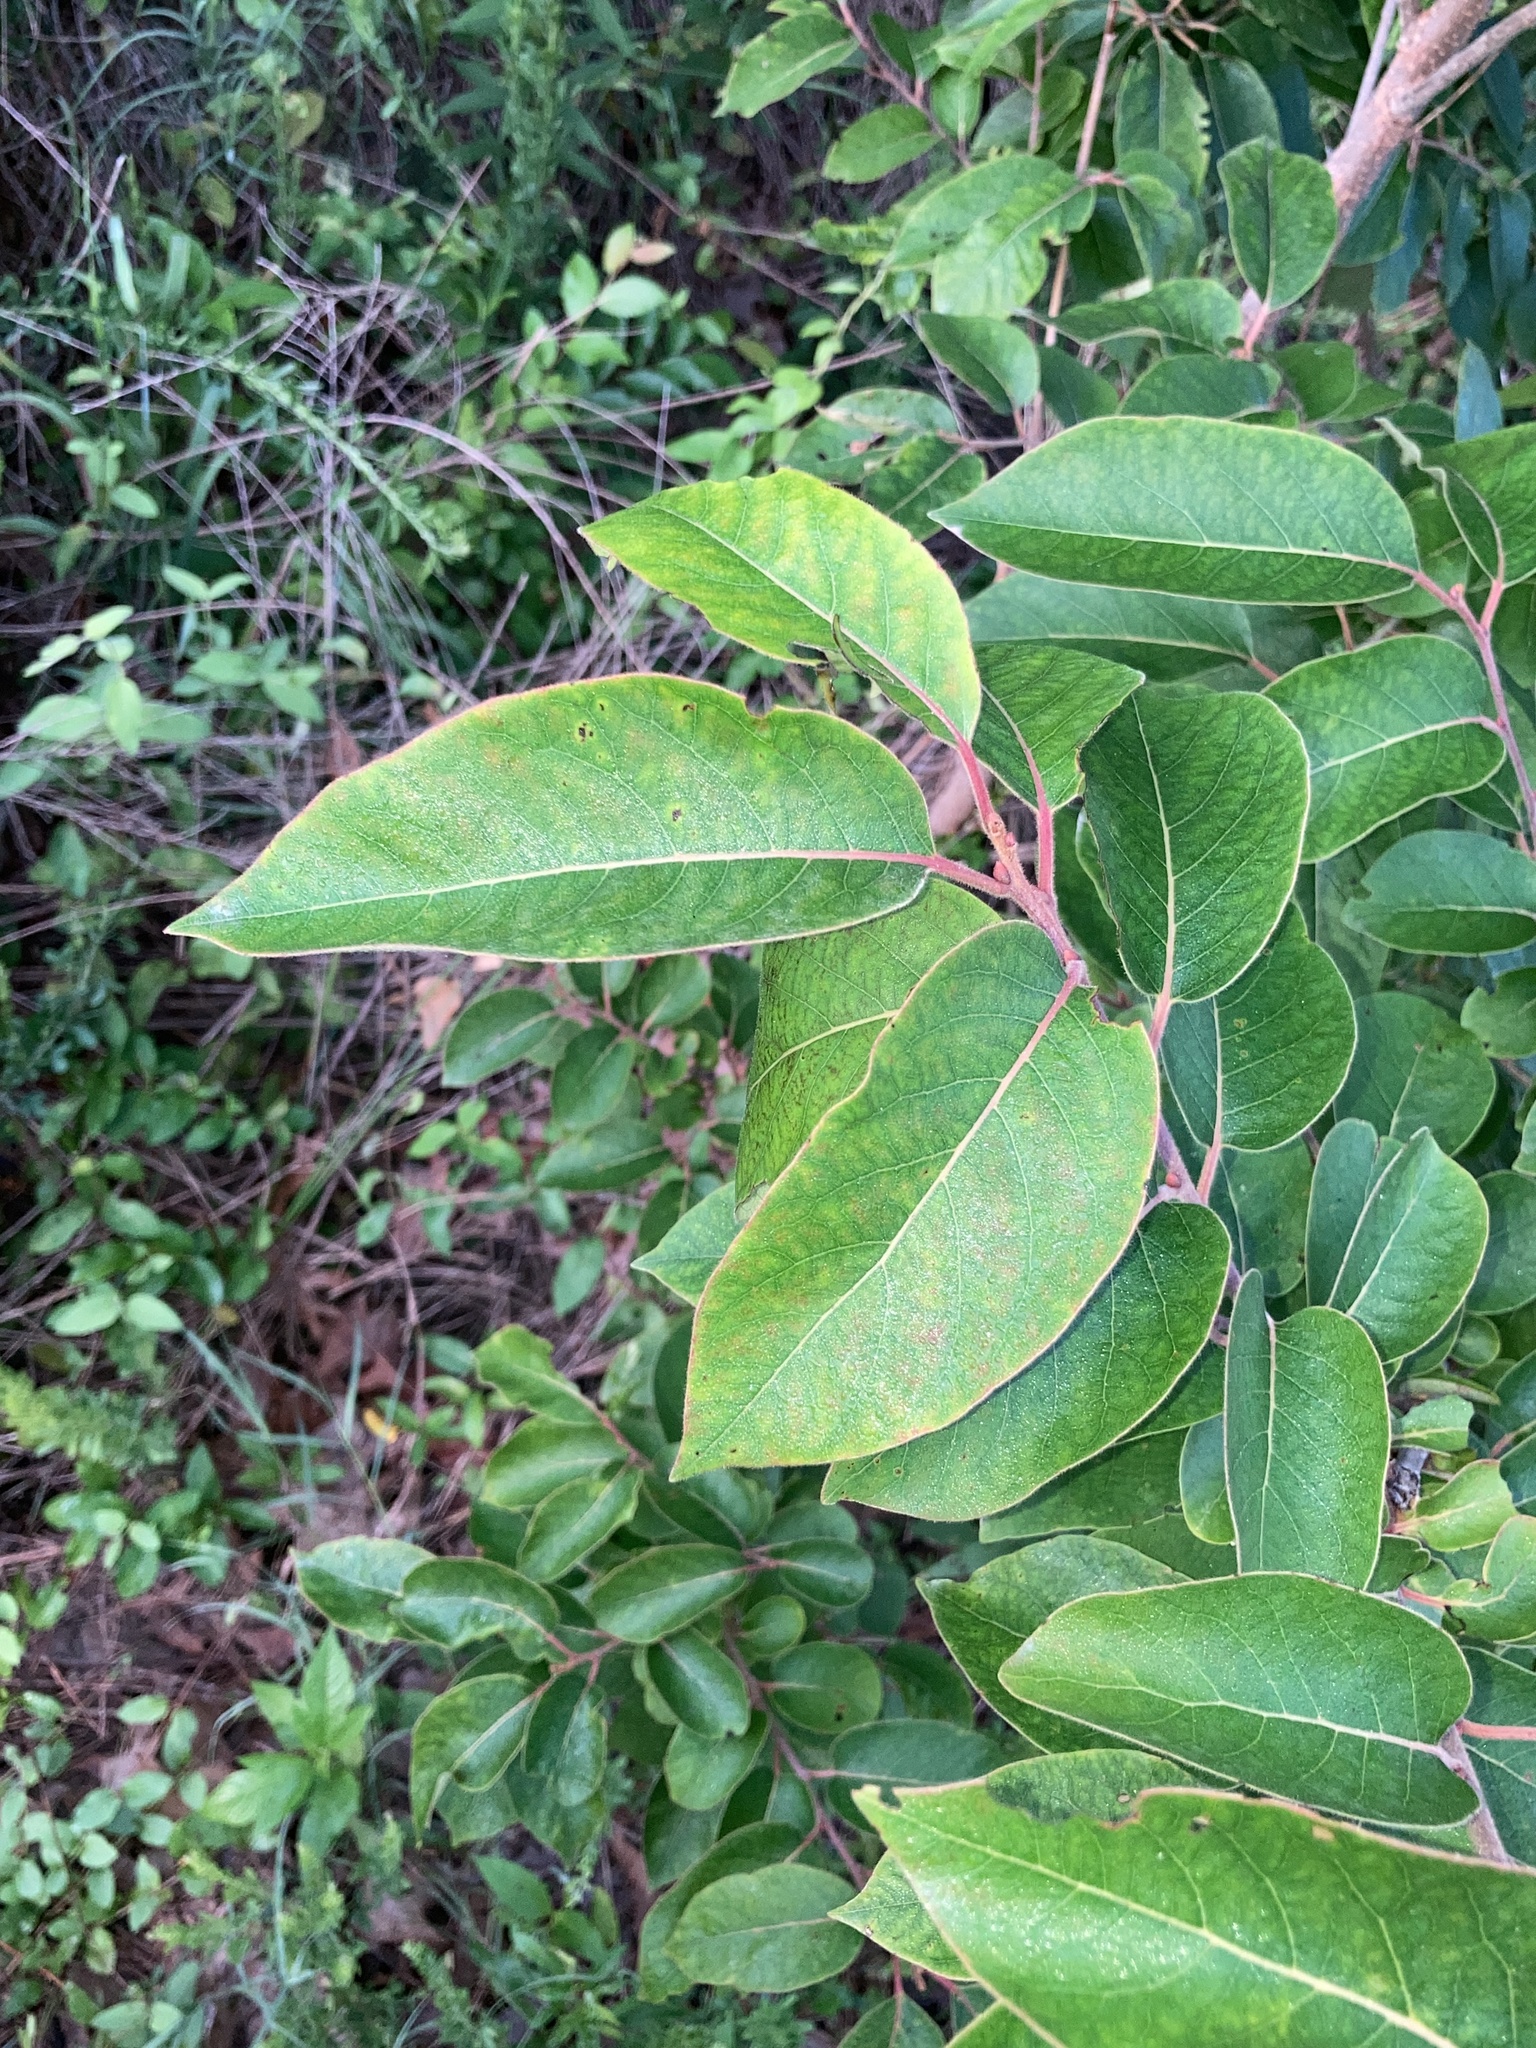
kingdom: Plantae
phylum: Tracheophyta
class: Magnoliopsida
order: Ericales
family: Ebenaceae
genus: Diospyros
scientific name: Diospyros virginiana
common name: Persimmon
